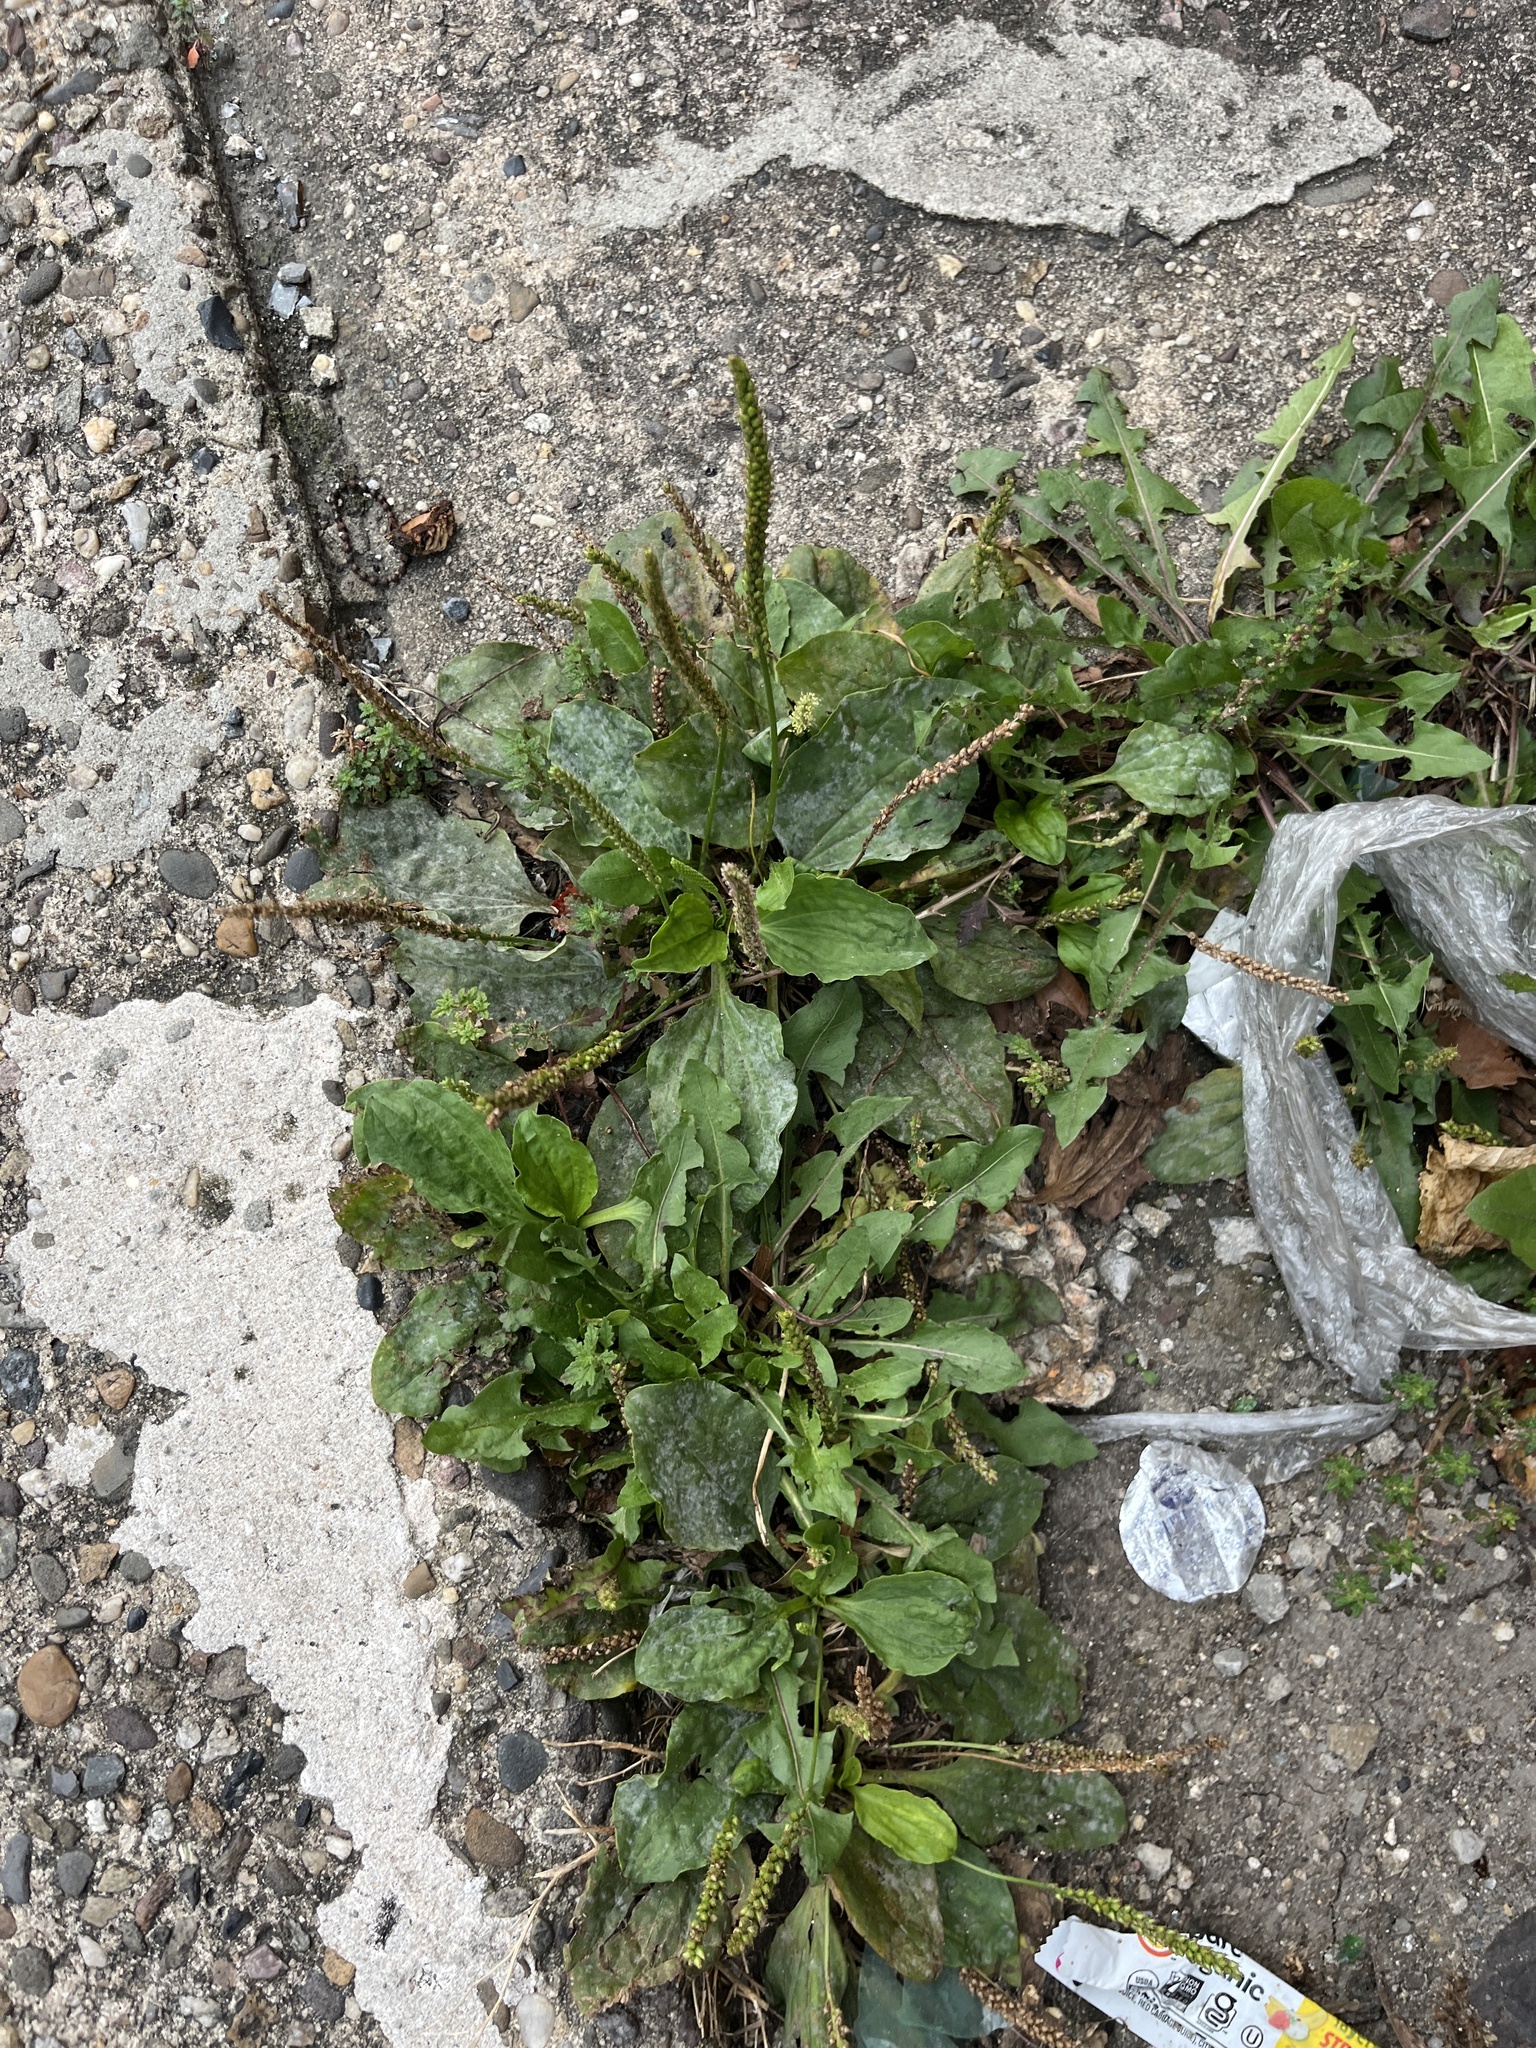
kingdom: Plantae
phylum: Tracheophyta
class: Magnoliopsida
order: Lamiales
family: Plantaginaceae
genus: Plantago
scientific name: Plantago major
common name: Common plantain
